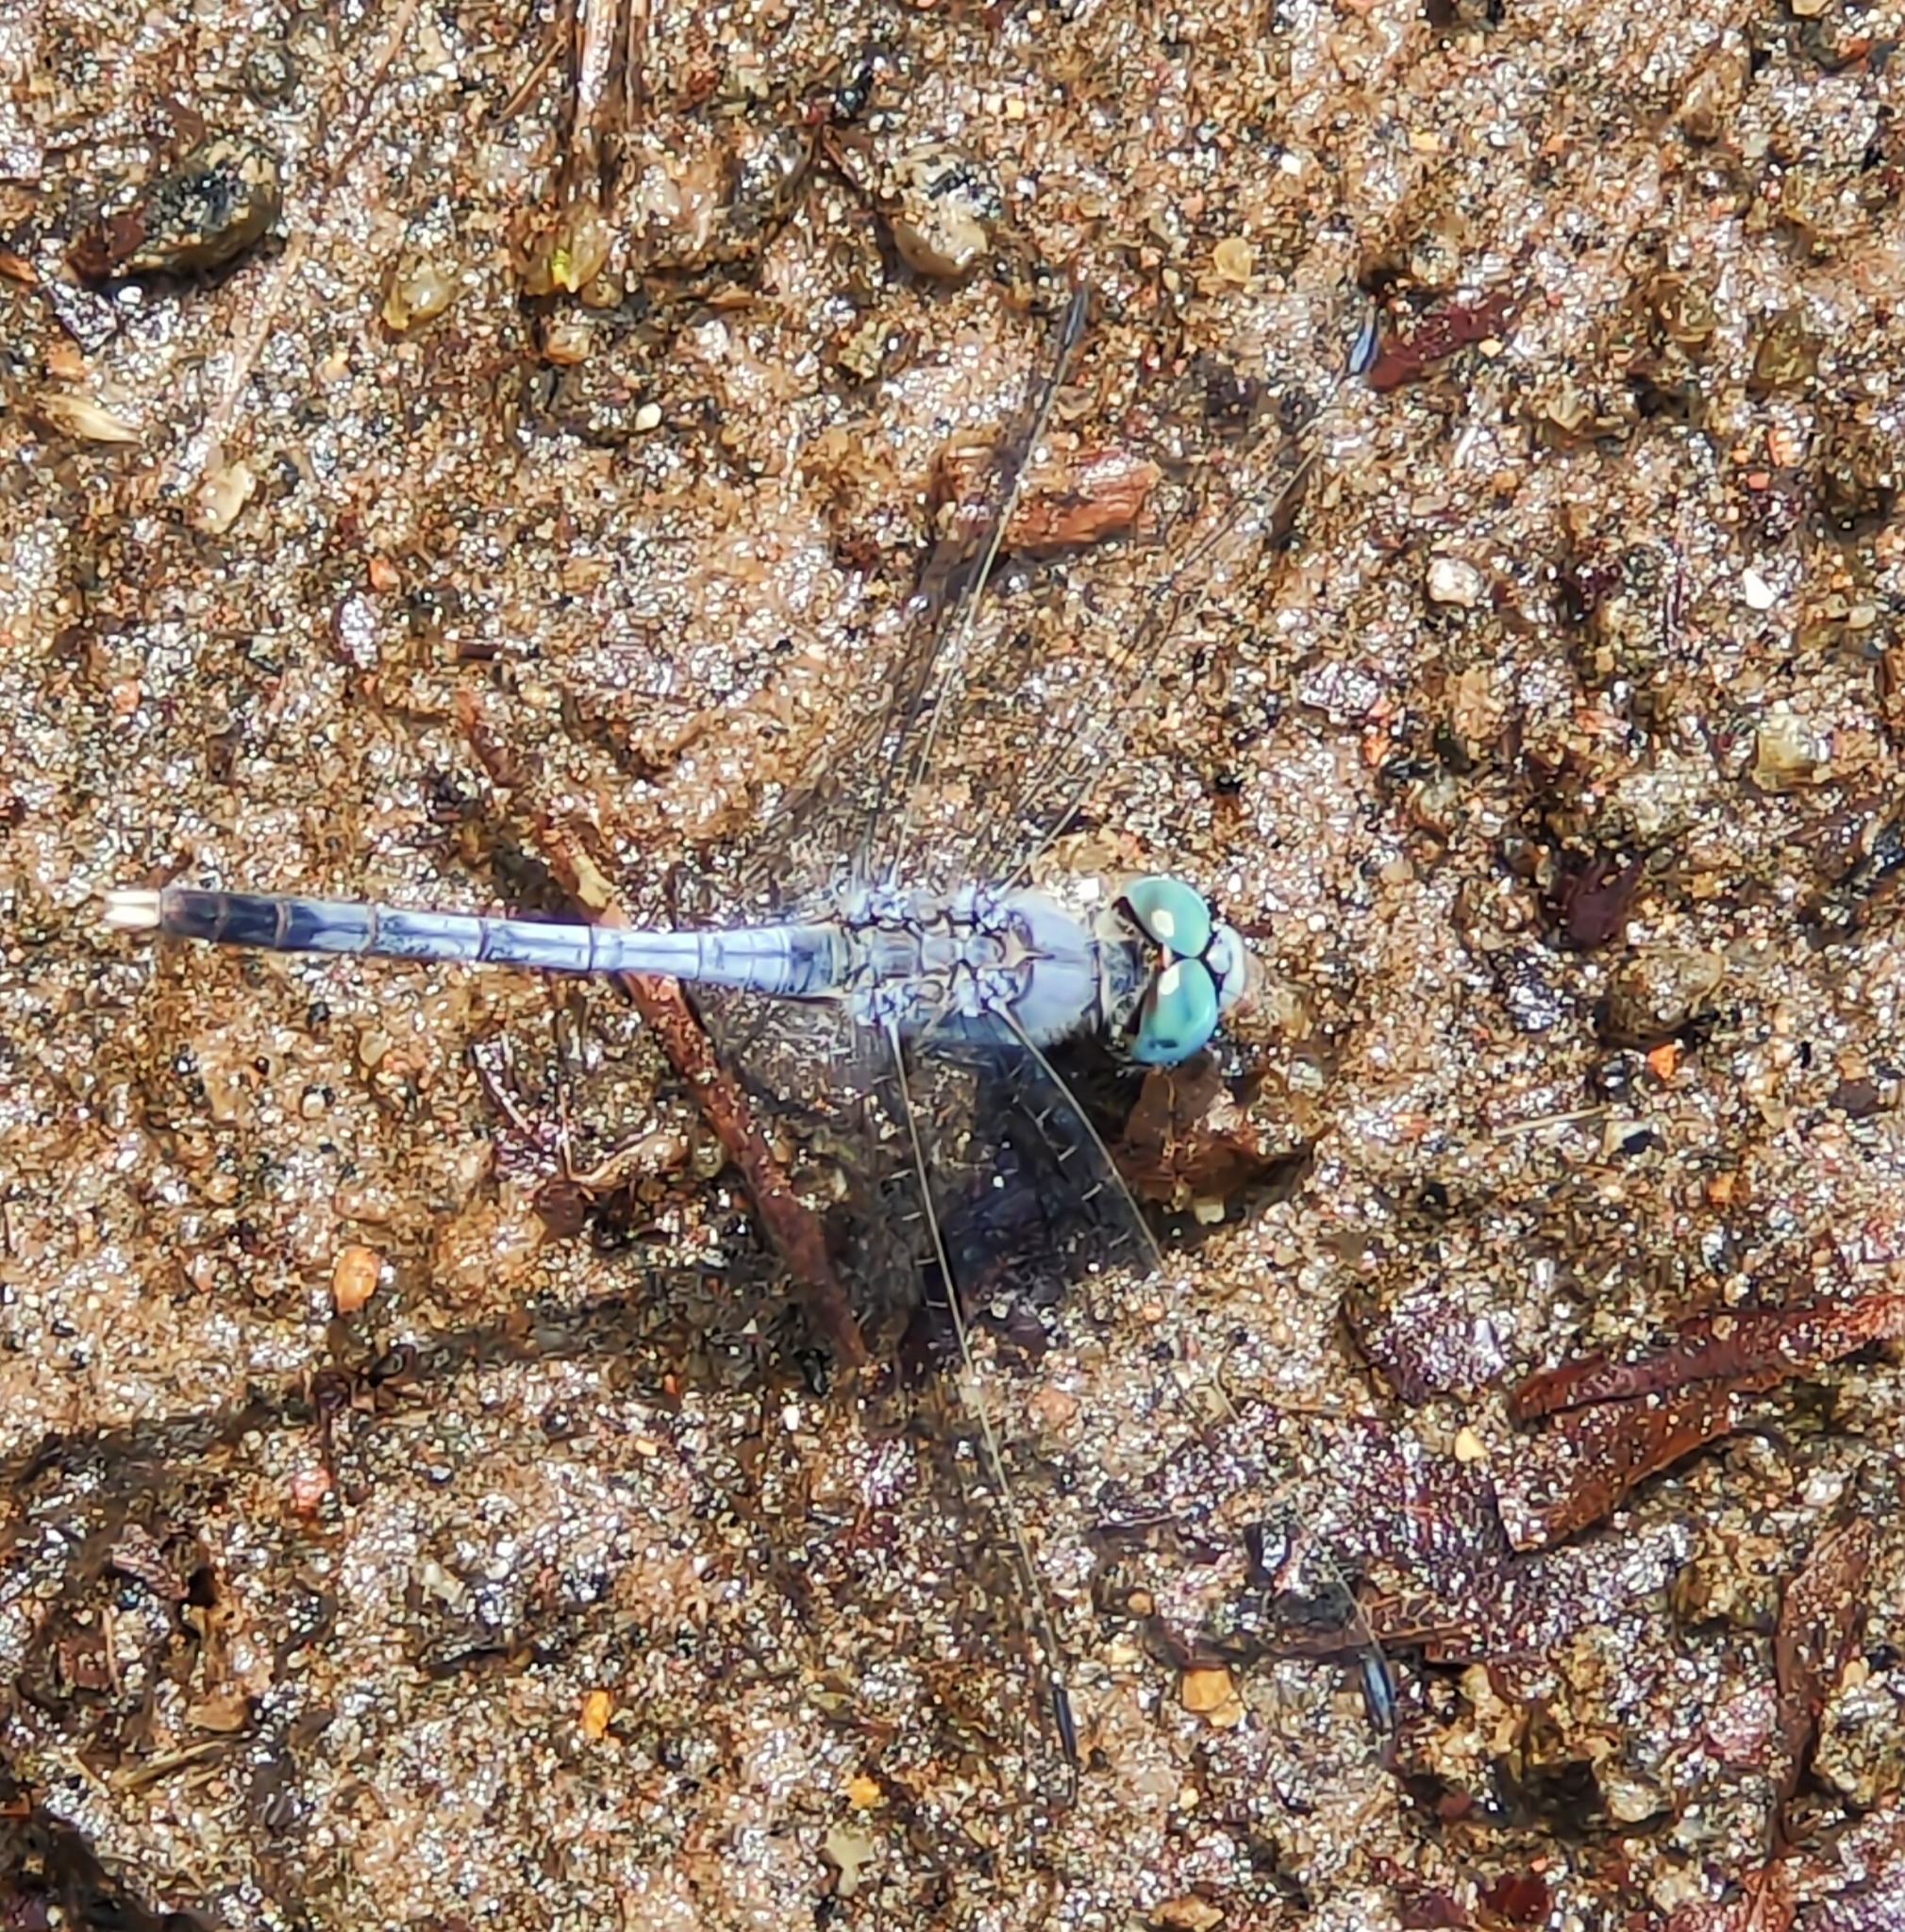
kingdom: Animalia
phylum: Arthropoda
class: Insecta
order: Odonata
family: Libellulidae
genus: Diplacodes
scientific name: Diplacodes trivialis
